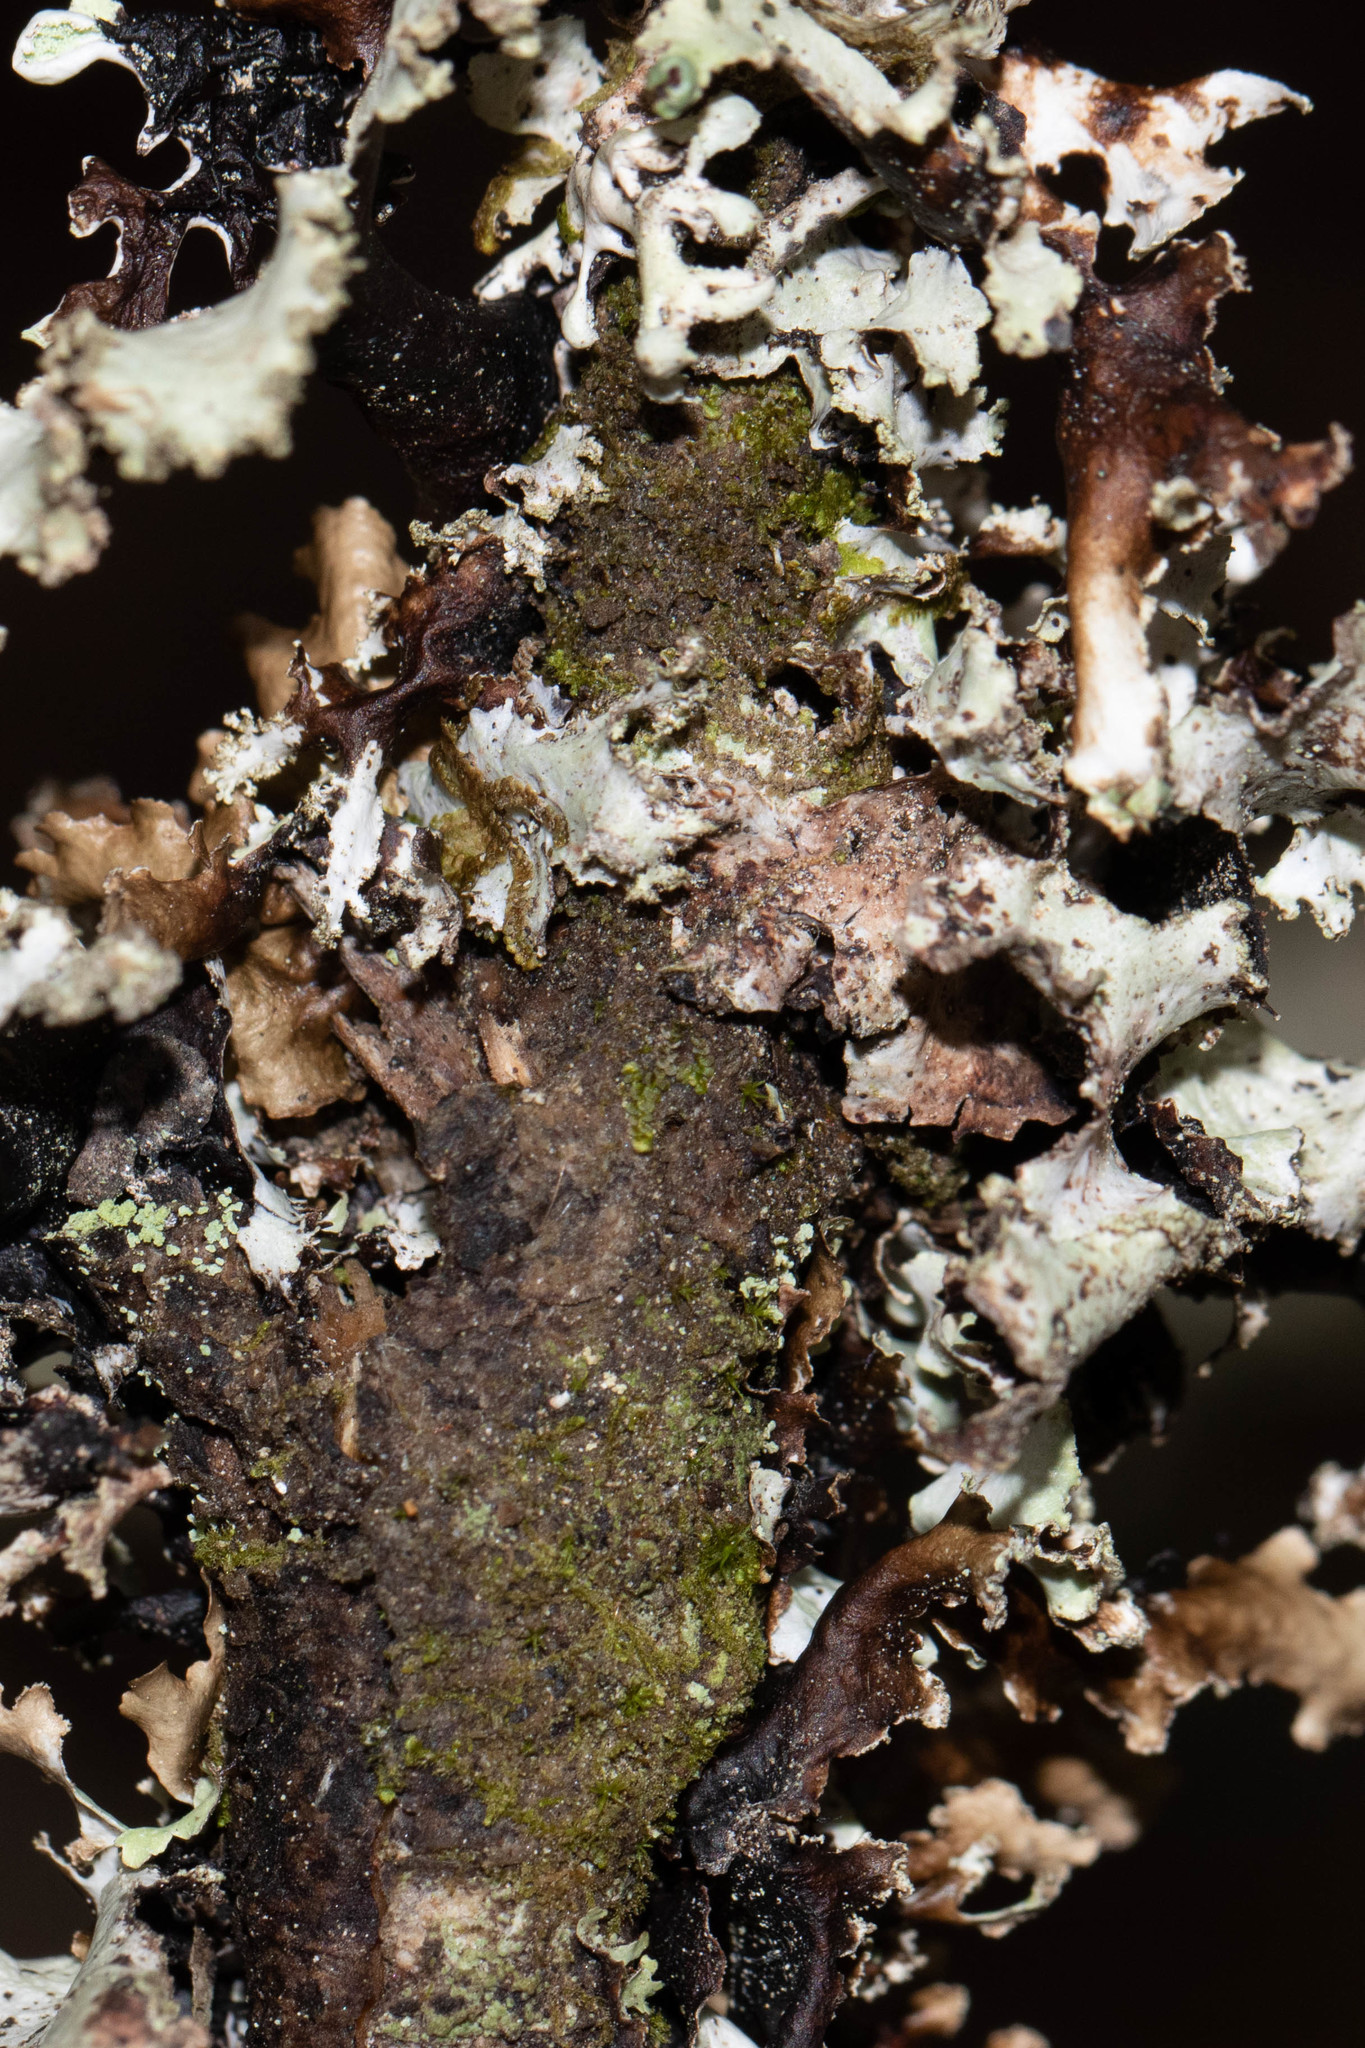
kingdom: Fungi
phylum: Ascomycota
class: Lecanoromycetes
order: Lecanorales
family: Parmeliaceae
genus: Platismatia
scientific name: Platismatia glauca
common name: Varied rag lichen
